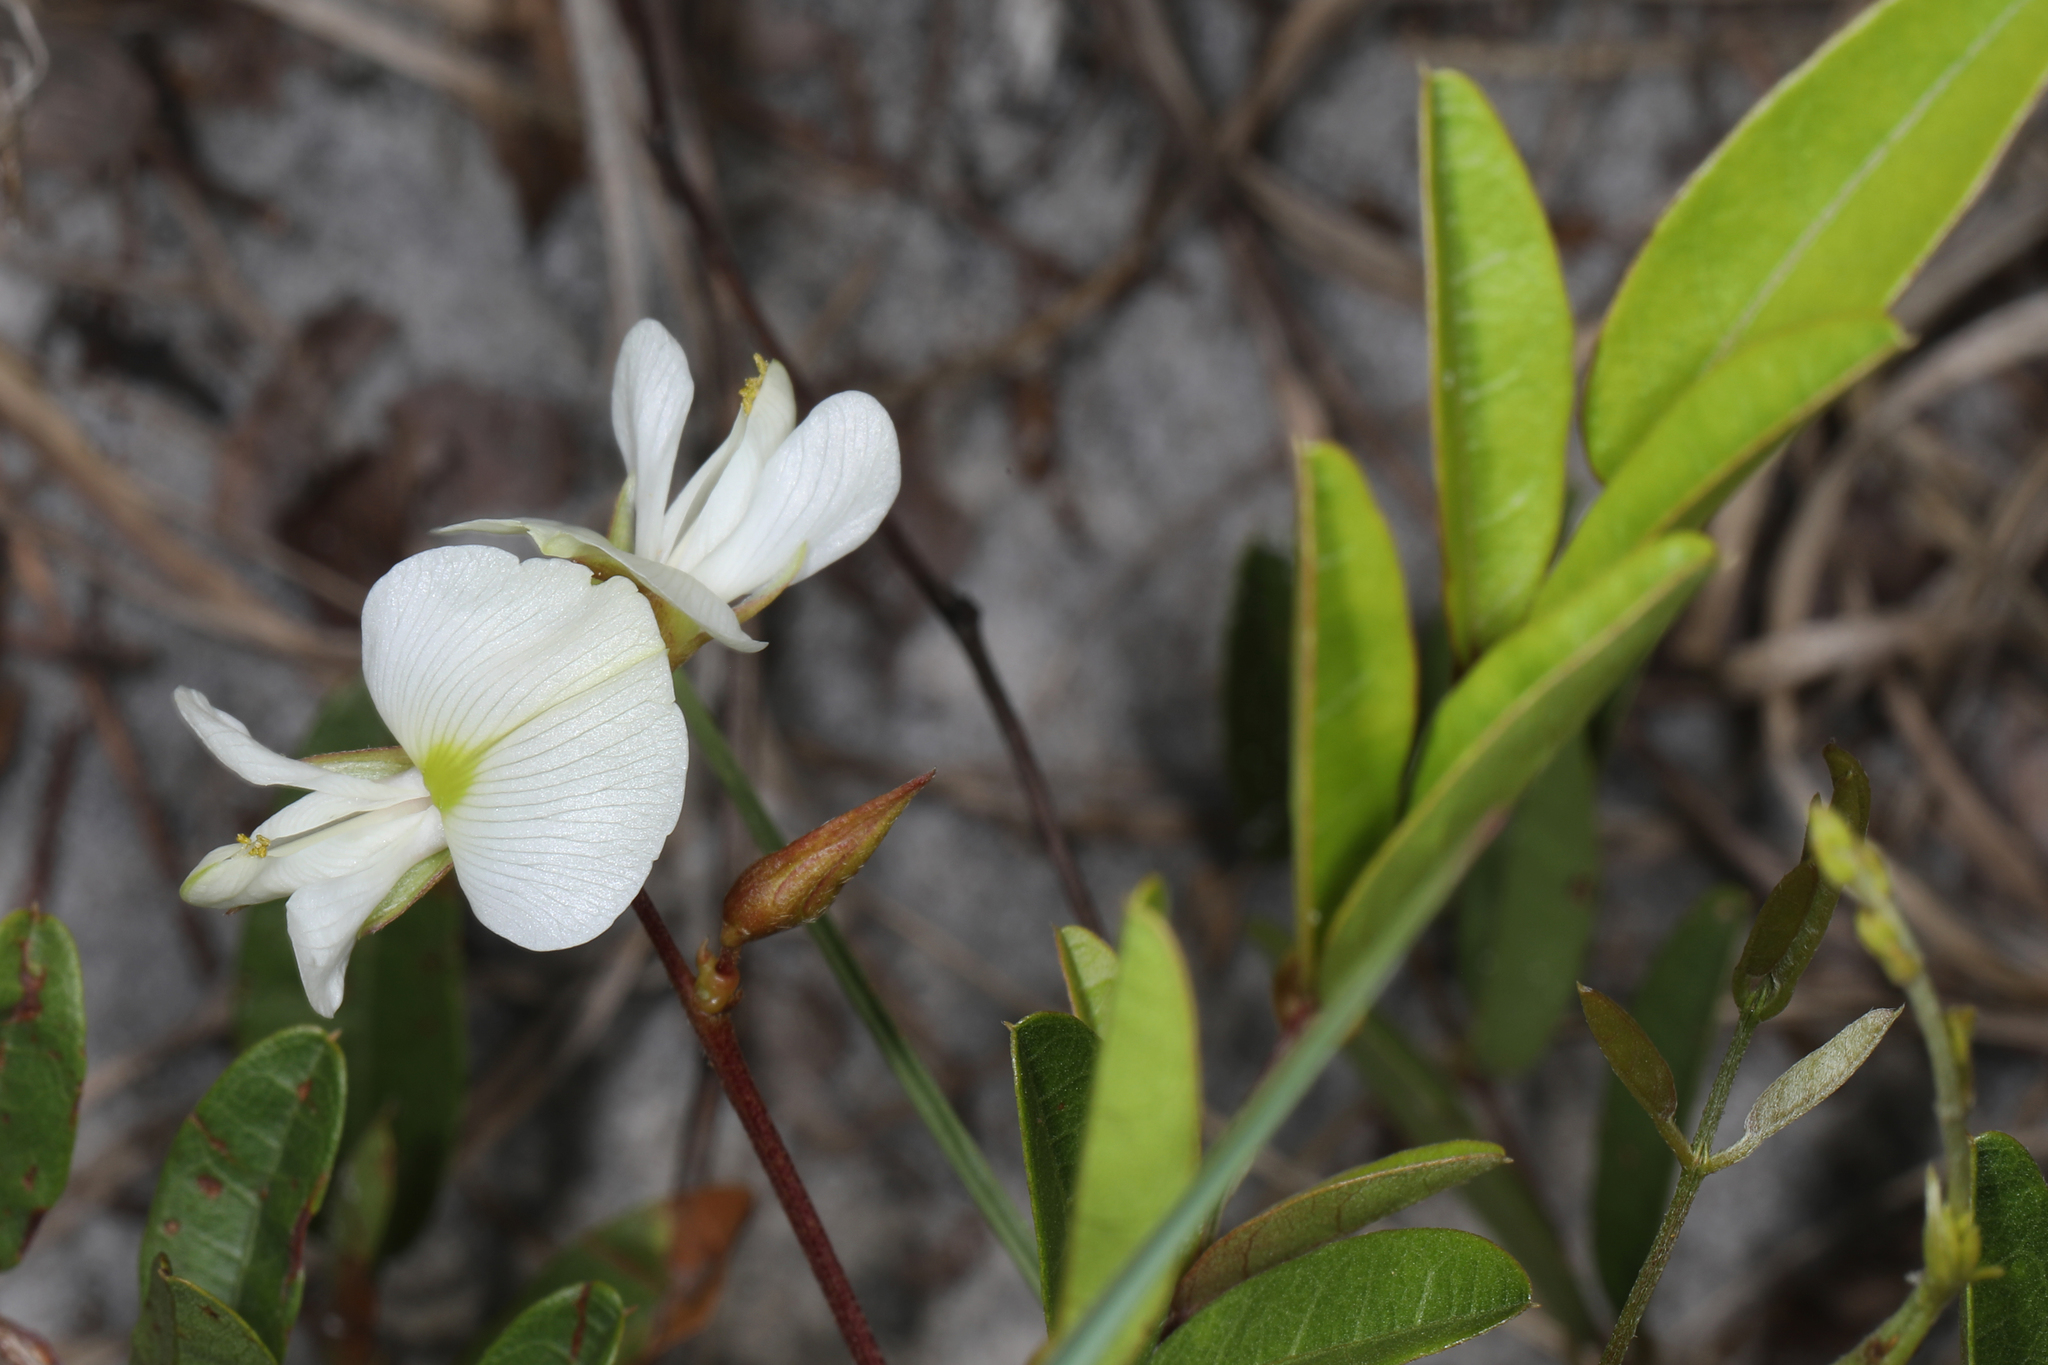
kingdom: Plantae
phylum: Tracheophyta
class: Magnoliopsida
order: Fabales
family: Fabaceae
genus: Galactia
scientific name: Galactia elliottii
